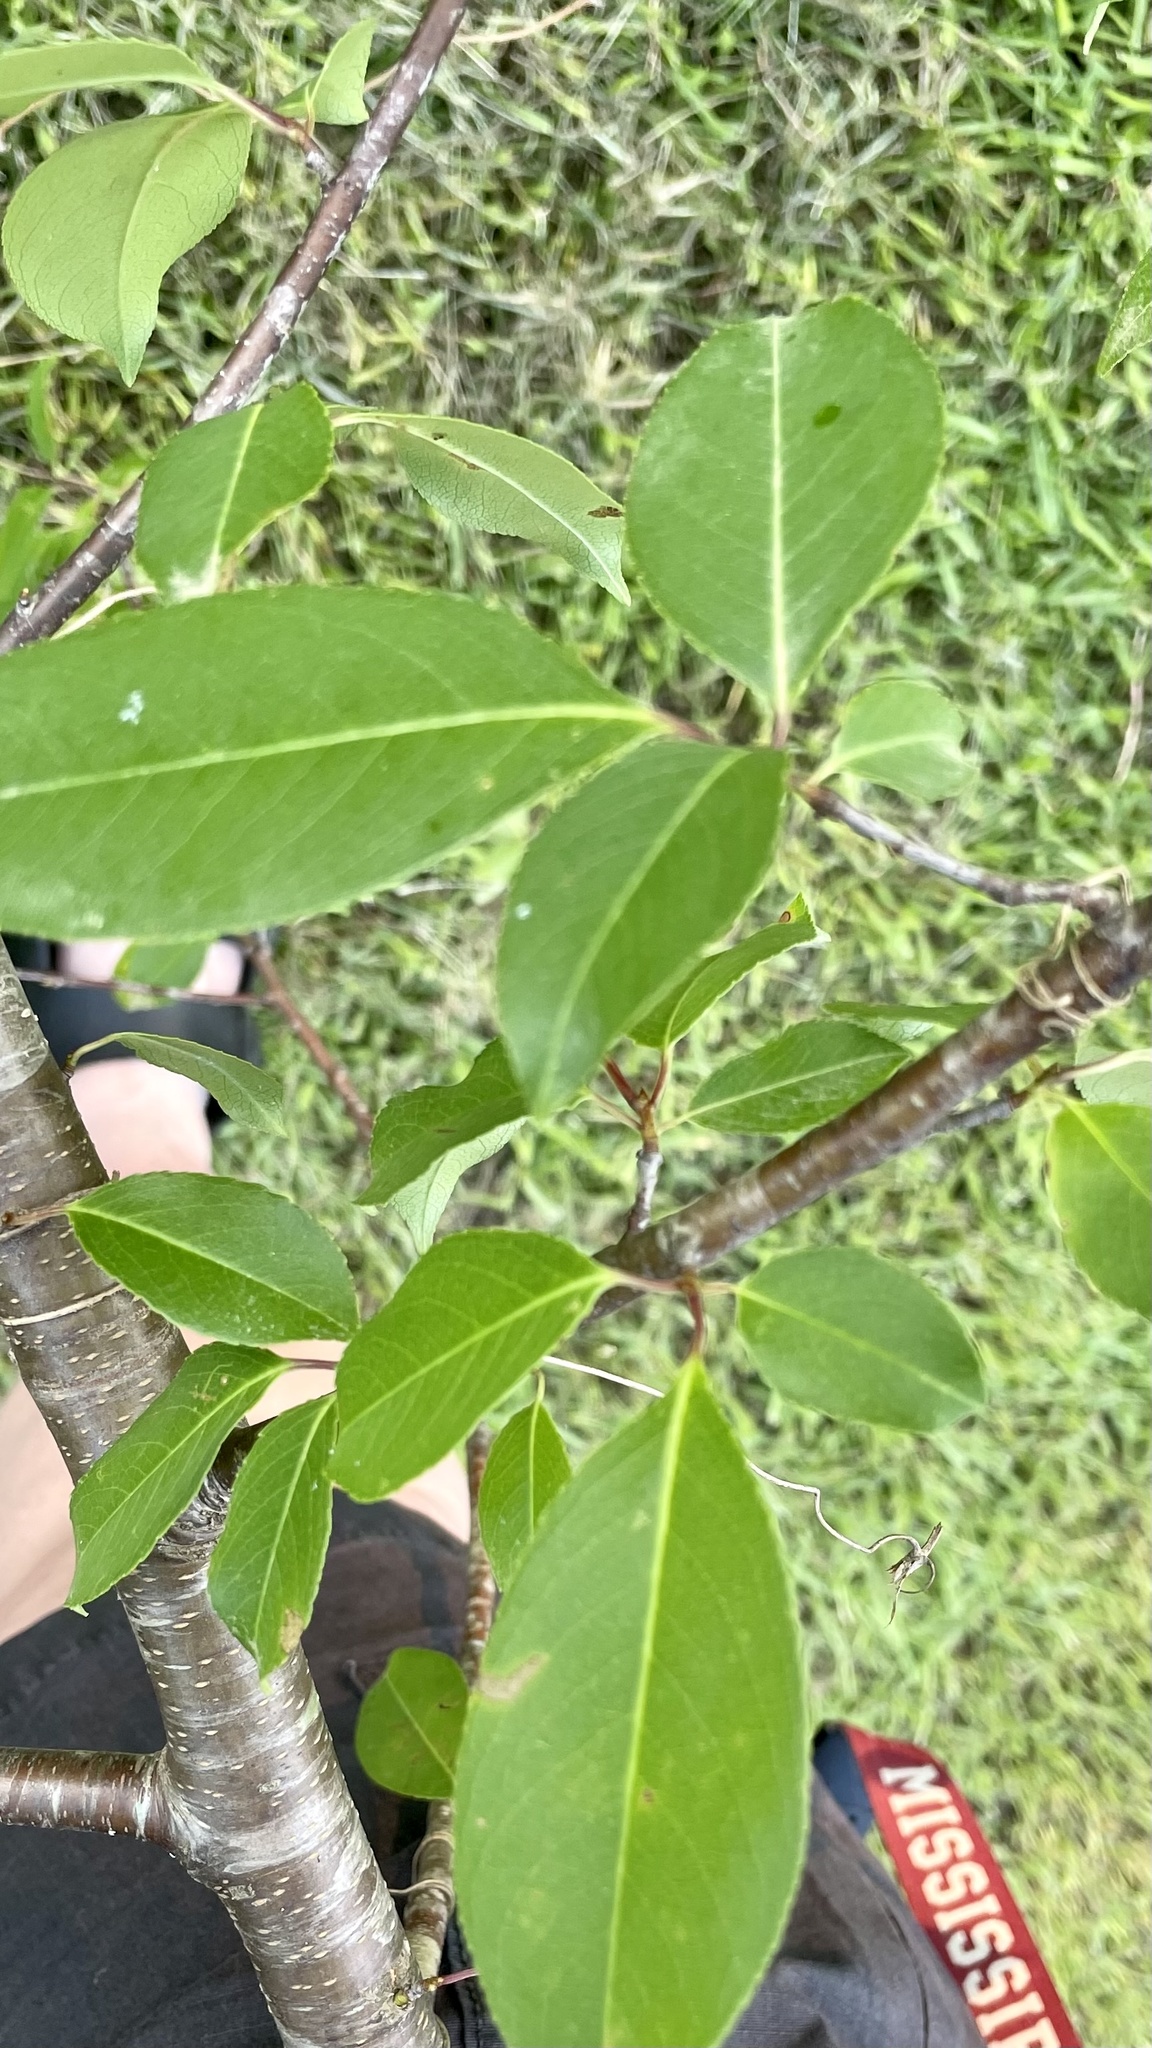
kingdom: Plantae
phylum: Tracheophyta
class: Magnoliopsida
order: Rosales
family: Rosaceae
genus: Prunus
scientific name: Prunus serotina
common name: Black cherry
